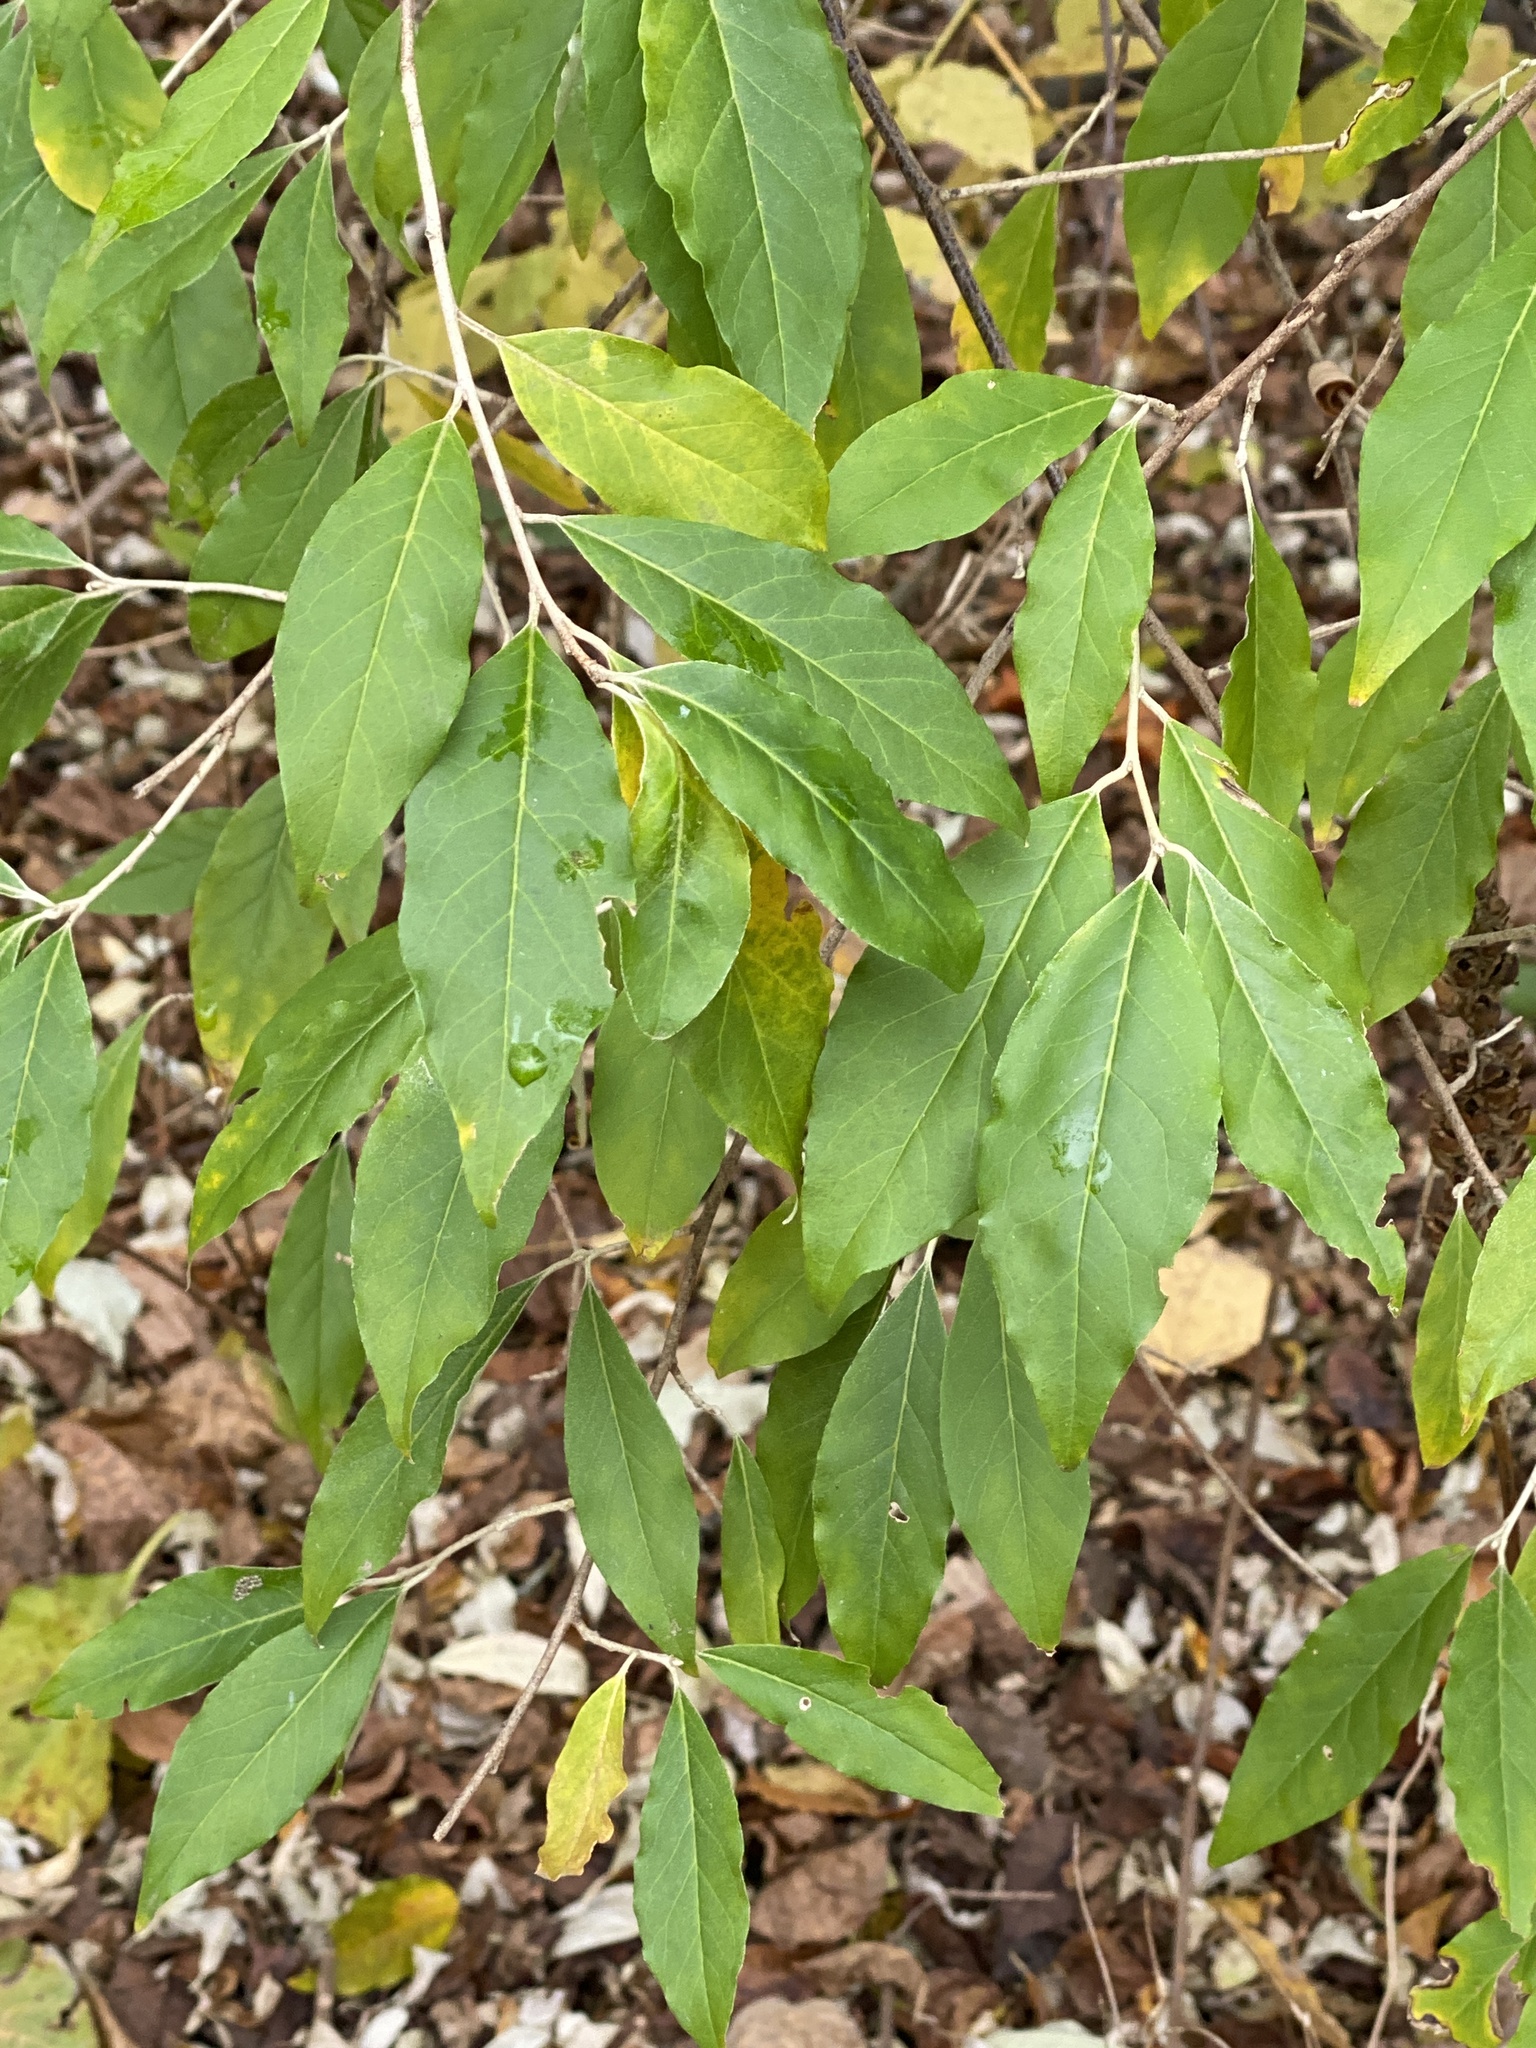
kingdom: Plantae
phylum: Tracheophyta
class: Magnoliopsida
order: Rosales
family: Elaeagnaceae
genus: Elaeagnus
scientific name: Elaeagnus umbellata
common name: Autumn olive
